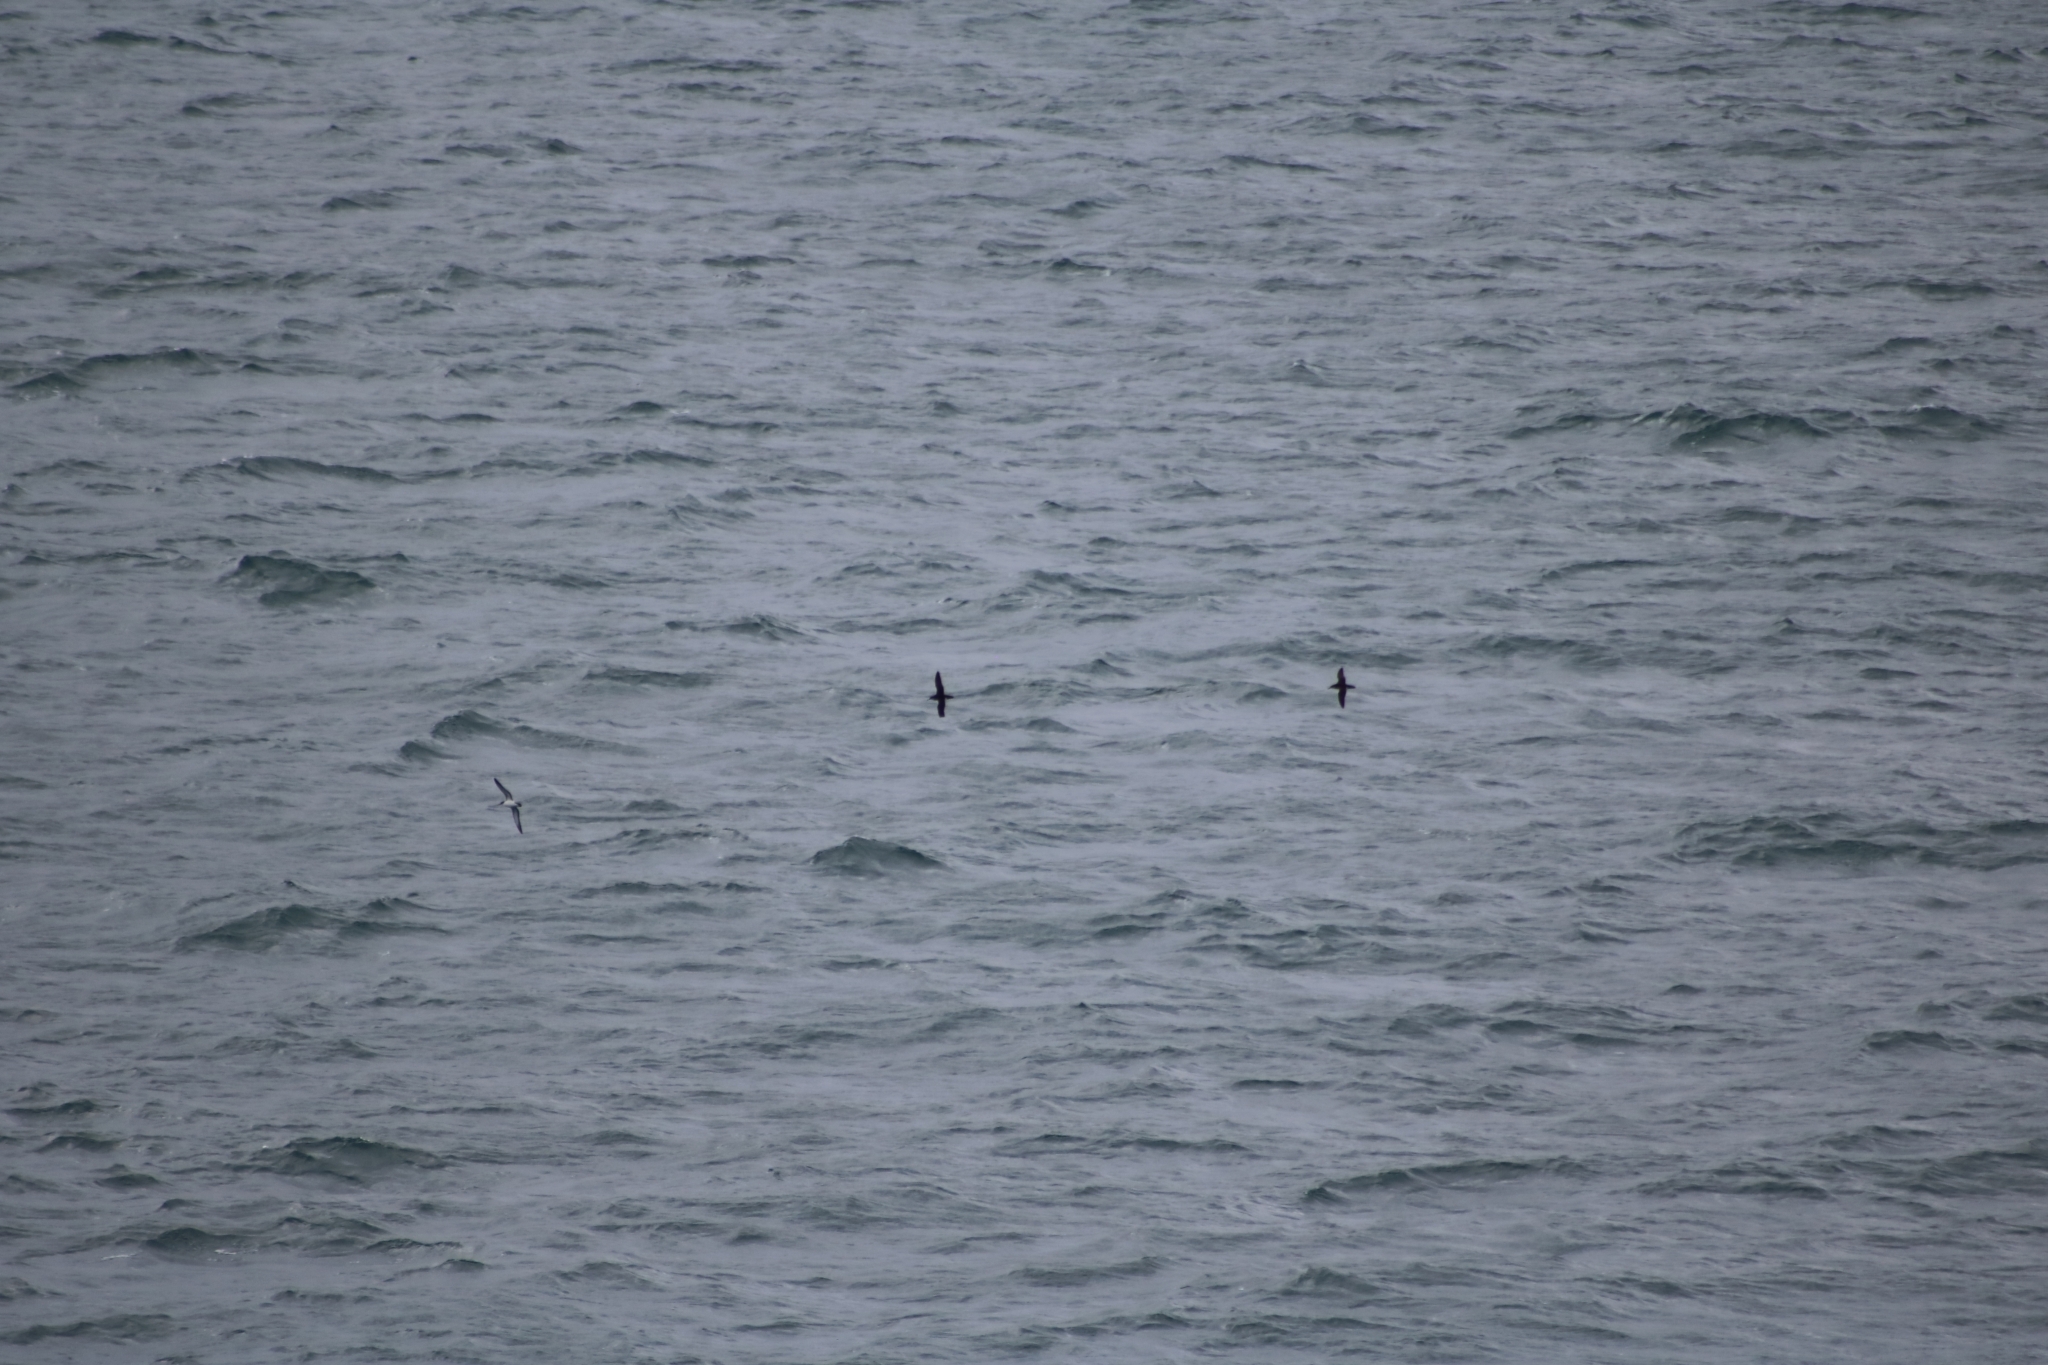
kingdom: Animalia
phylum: Chordata
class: Aves
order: Procellariiformes
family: Procellariidae
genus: Puffinus
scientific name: Puffinus puffinus
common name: Manx shearwater
